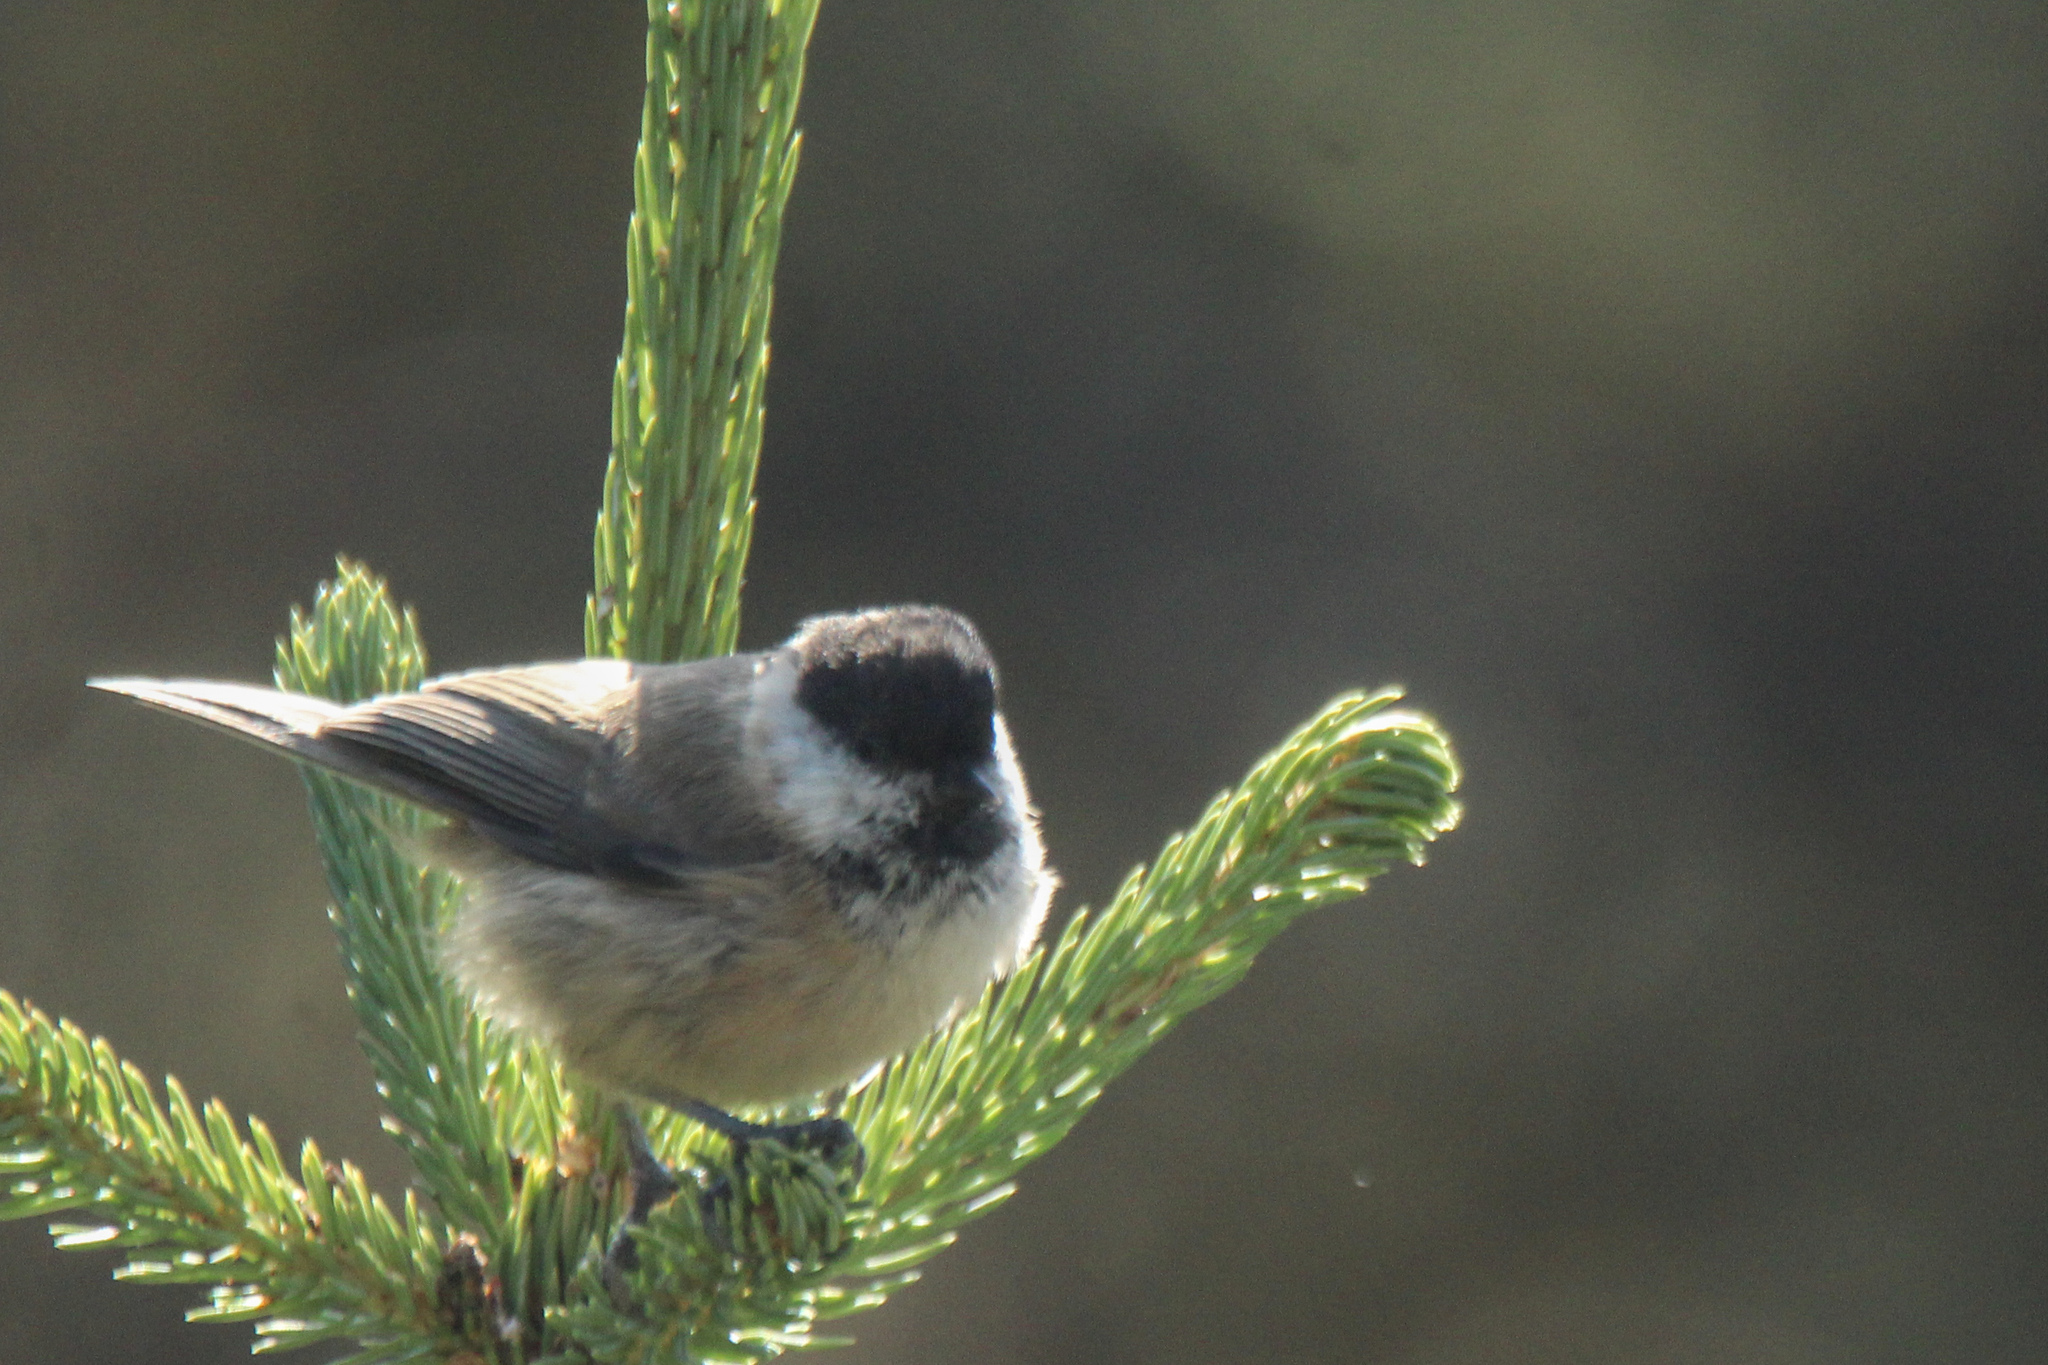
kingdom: Animalia
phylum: Chordata
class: Aves
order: Passeriformes
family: Paridae
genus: Poecile
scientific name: Poecile montanus
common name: Willow tit
